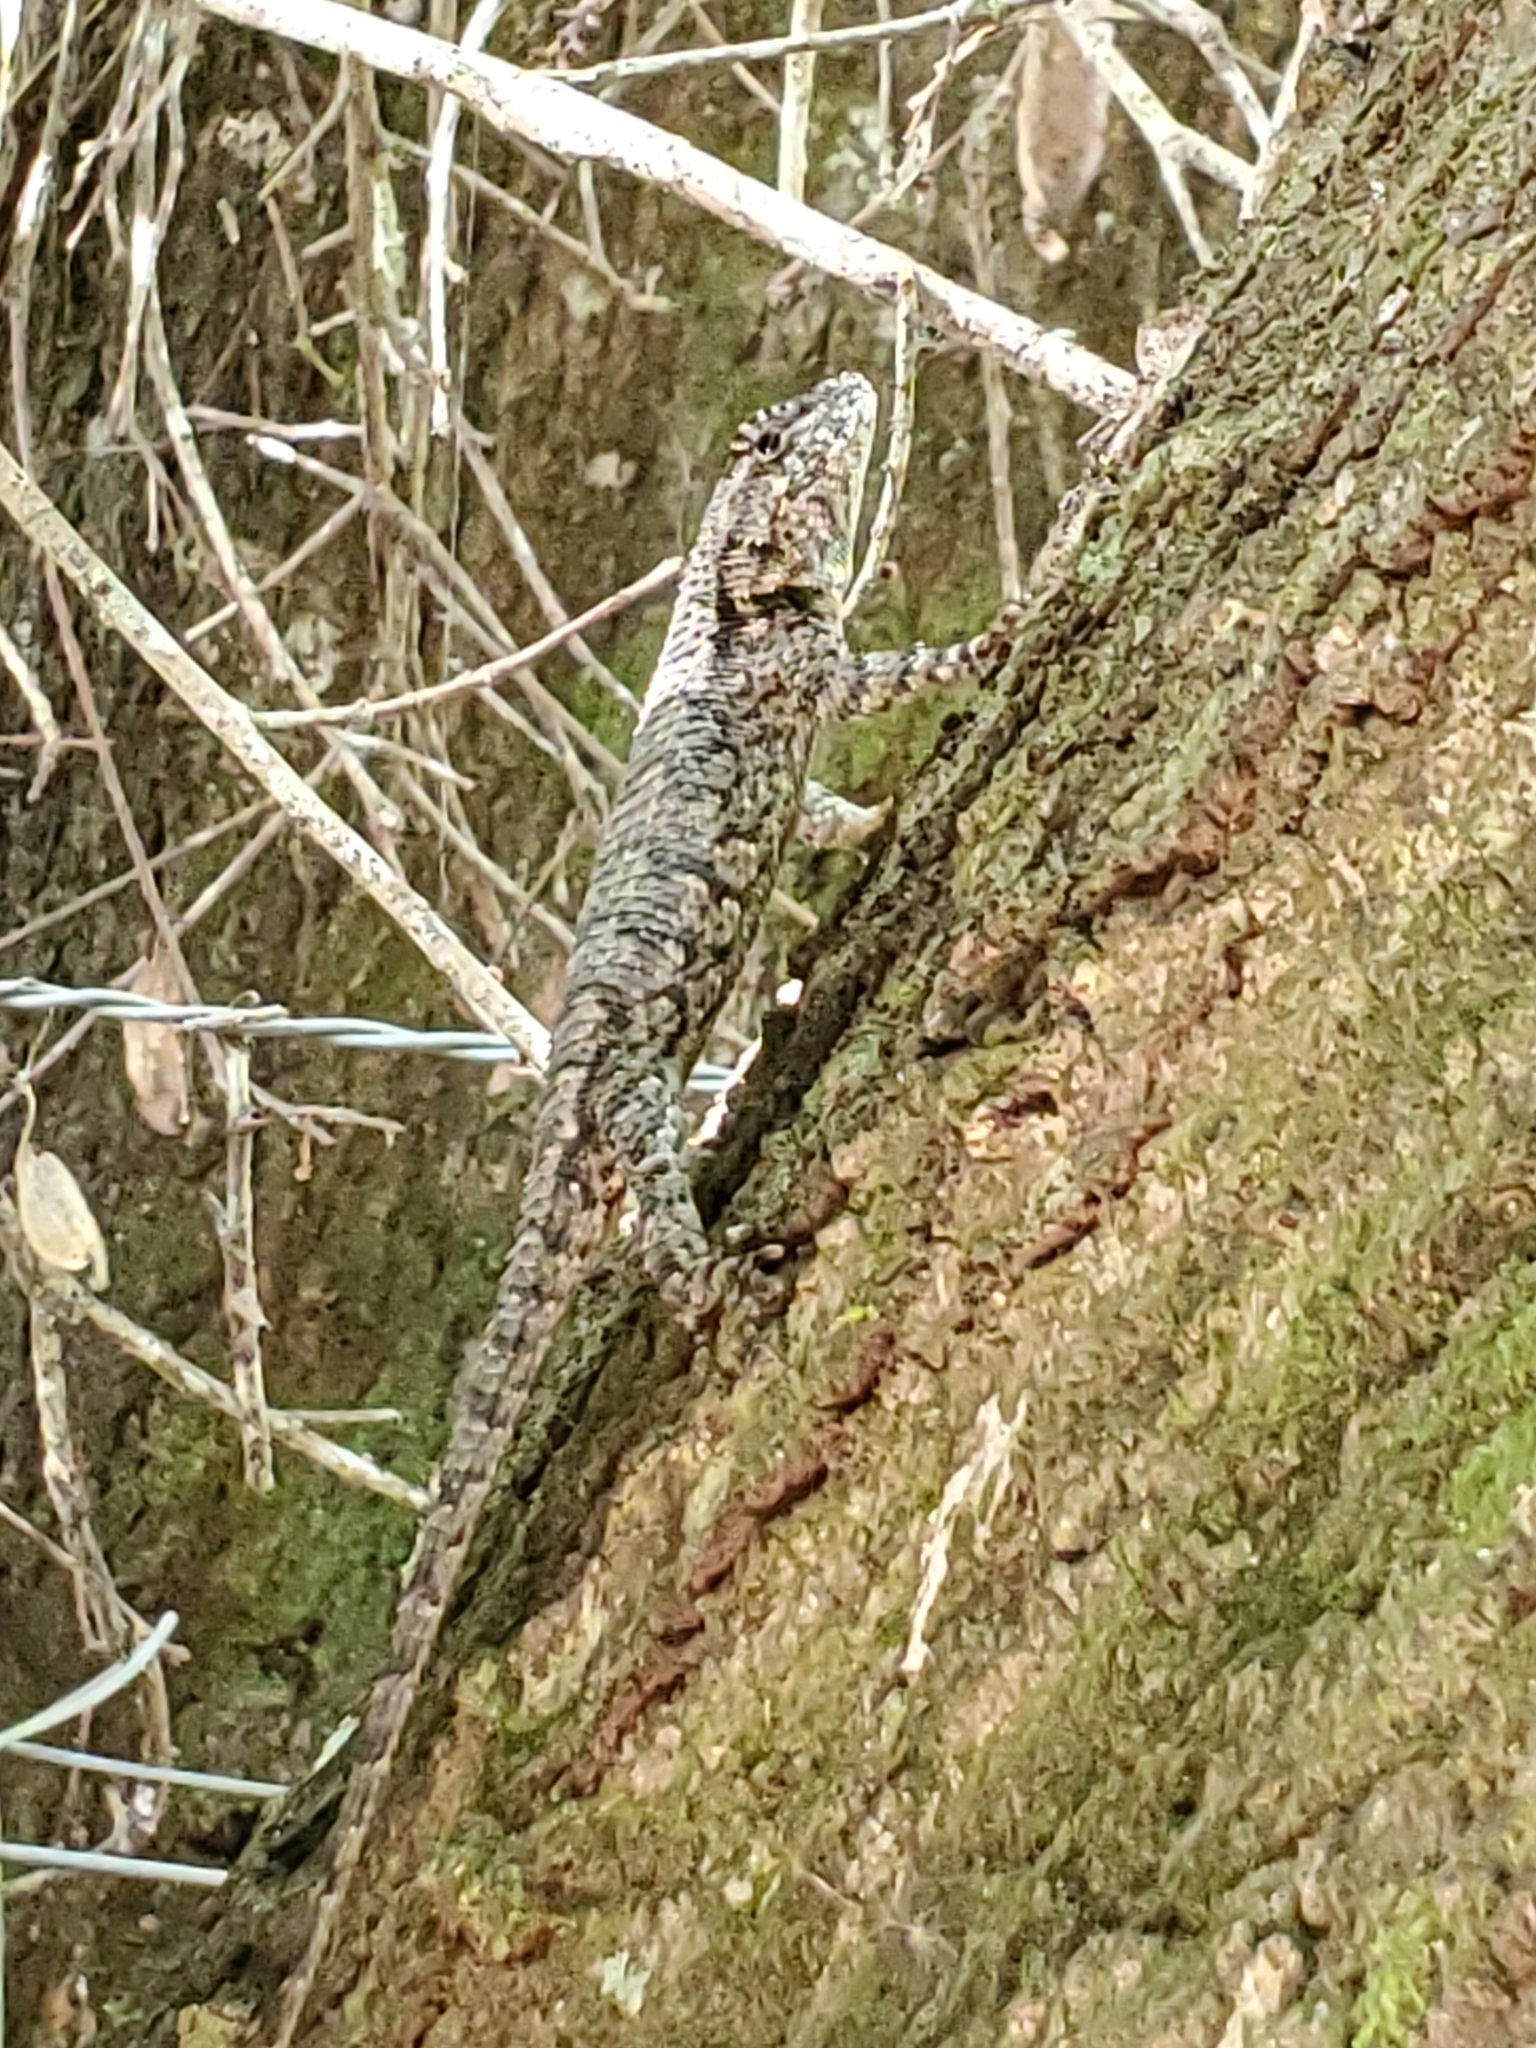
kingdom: Animalia
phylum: Chordata
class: Squamata
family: Phrynosomatidae
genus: Sceloporus
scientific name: Sceloporus undulatus
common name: Eastern fence lizard
